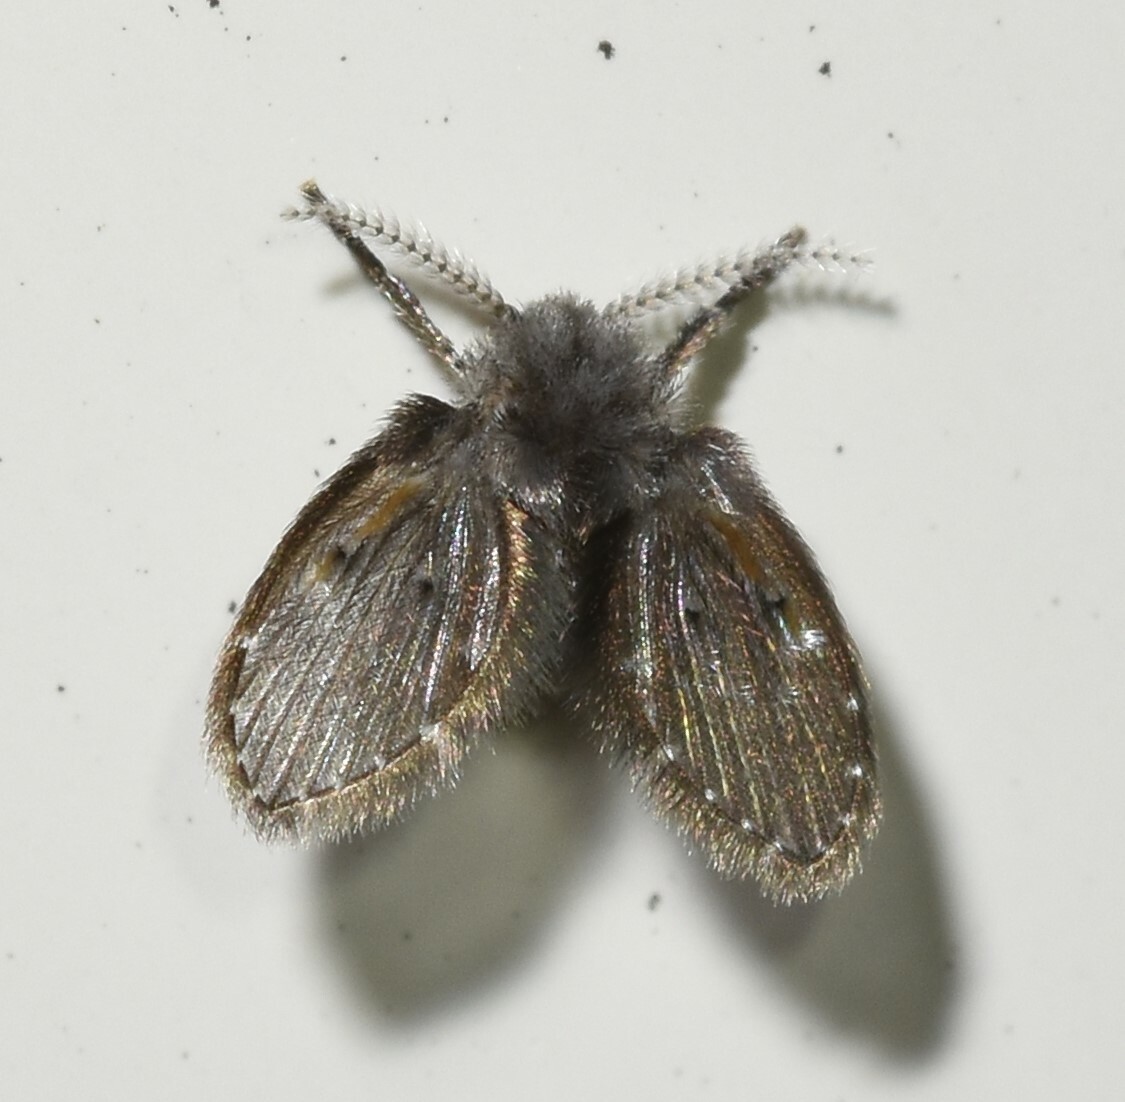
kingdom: Animalia
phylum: Arthropoda
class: Insecta
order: Diptera
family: Psychodidae
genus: Clogmia
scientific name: Clogmia albipunctatus
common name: White-spotted moth fly
